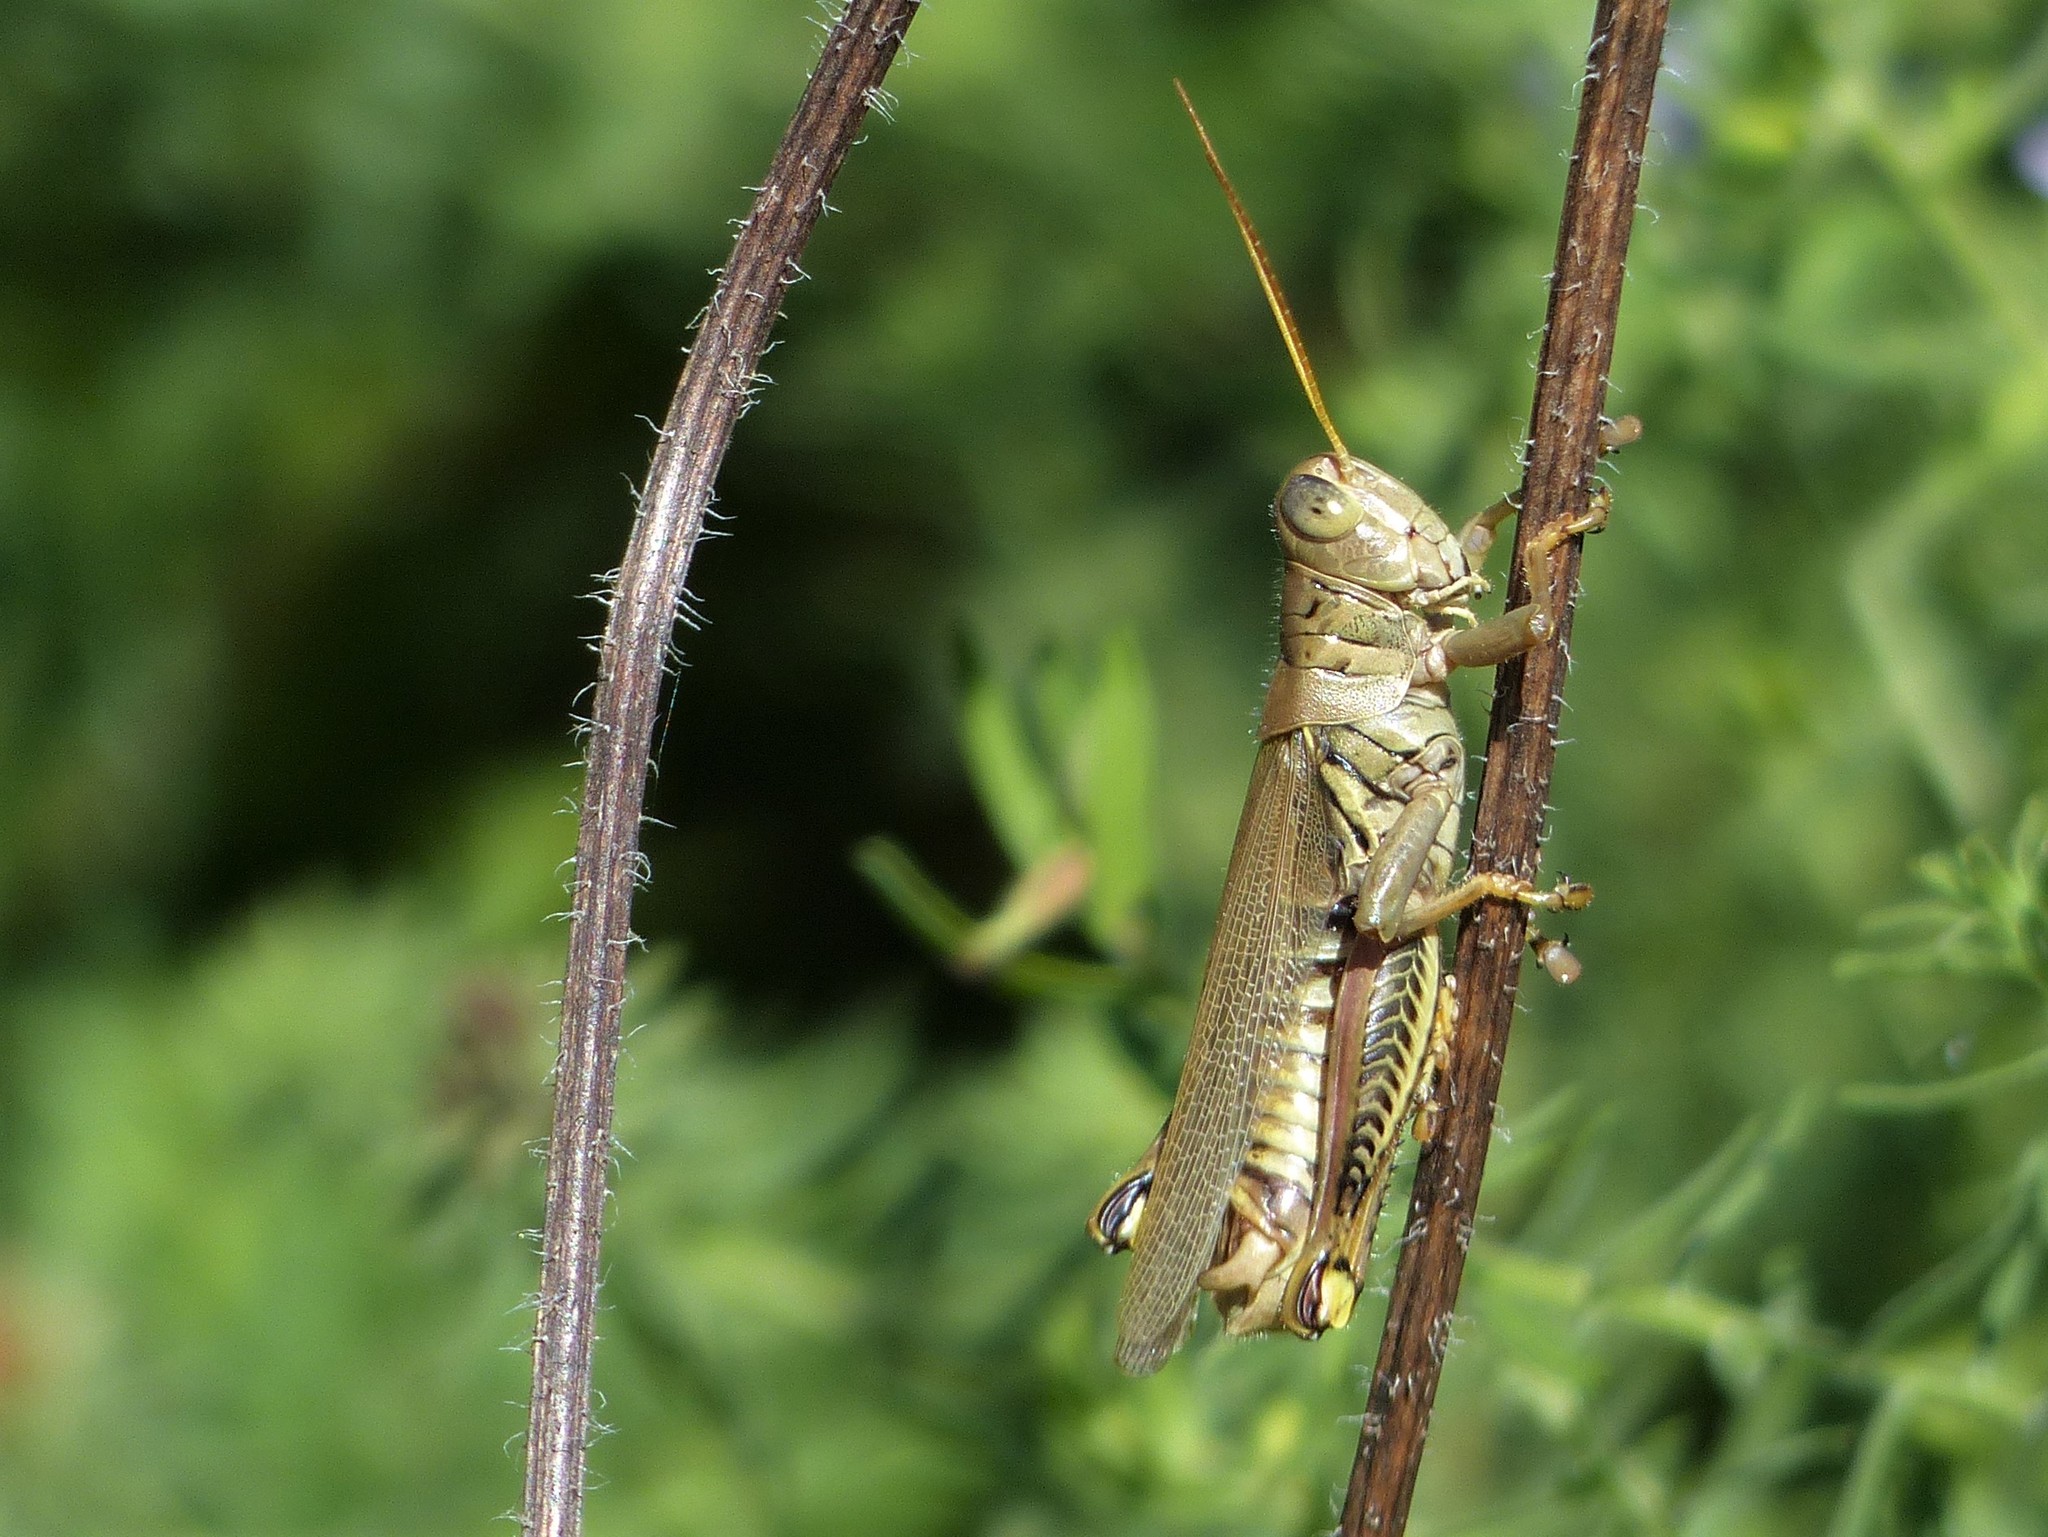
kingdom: Animalia
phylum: Arthropoda
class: Insecta
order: Orthoptera
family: Acrididae
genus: Melanoplus
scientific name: Melanoplus differentialis
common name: Differential grasshopper
